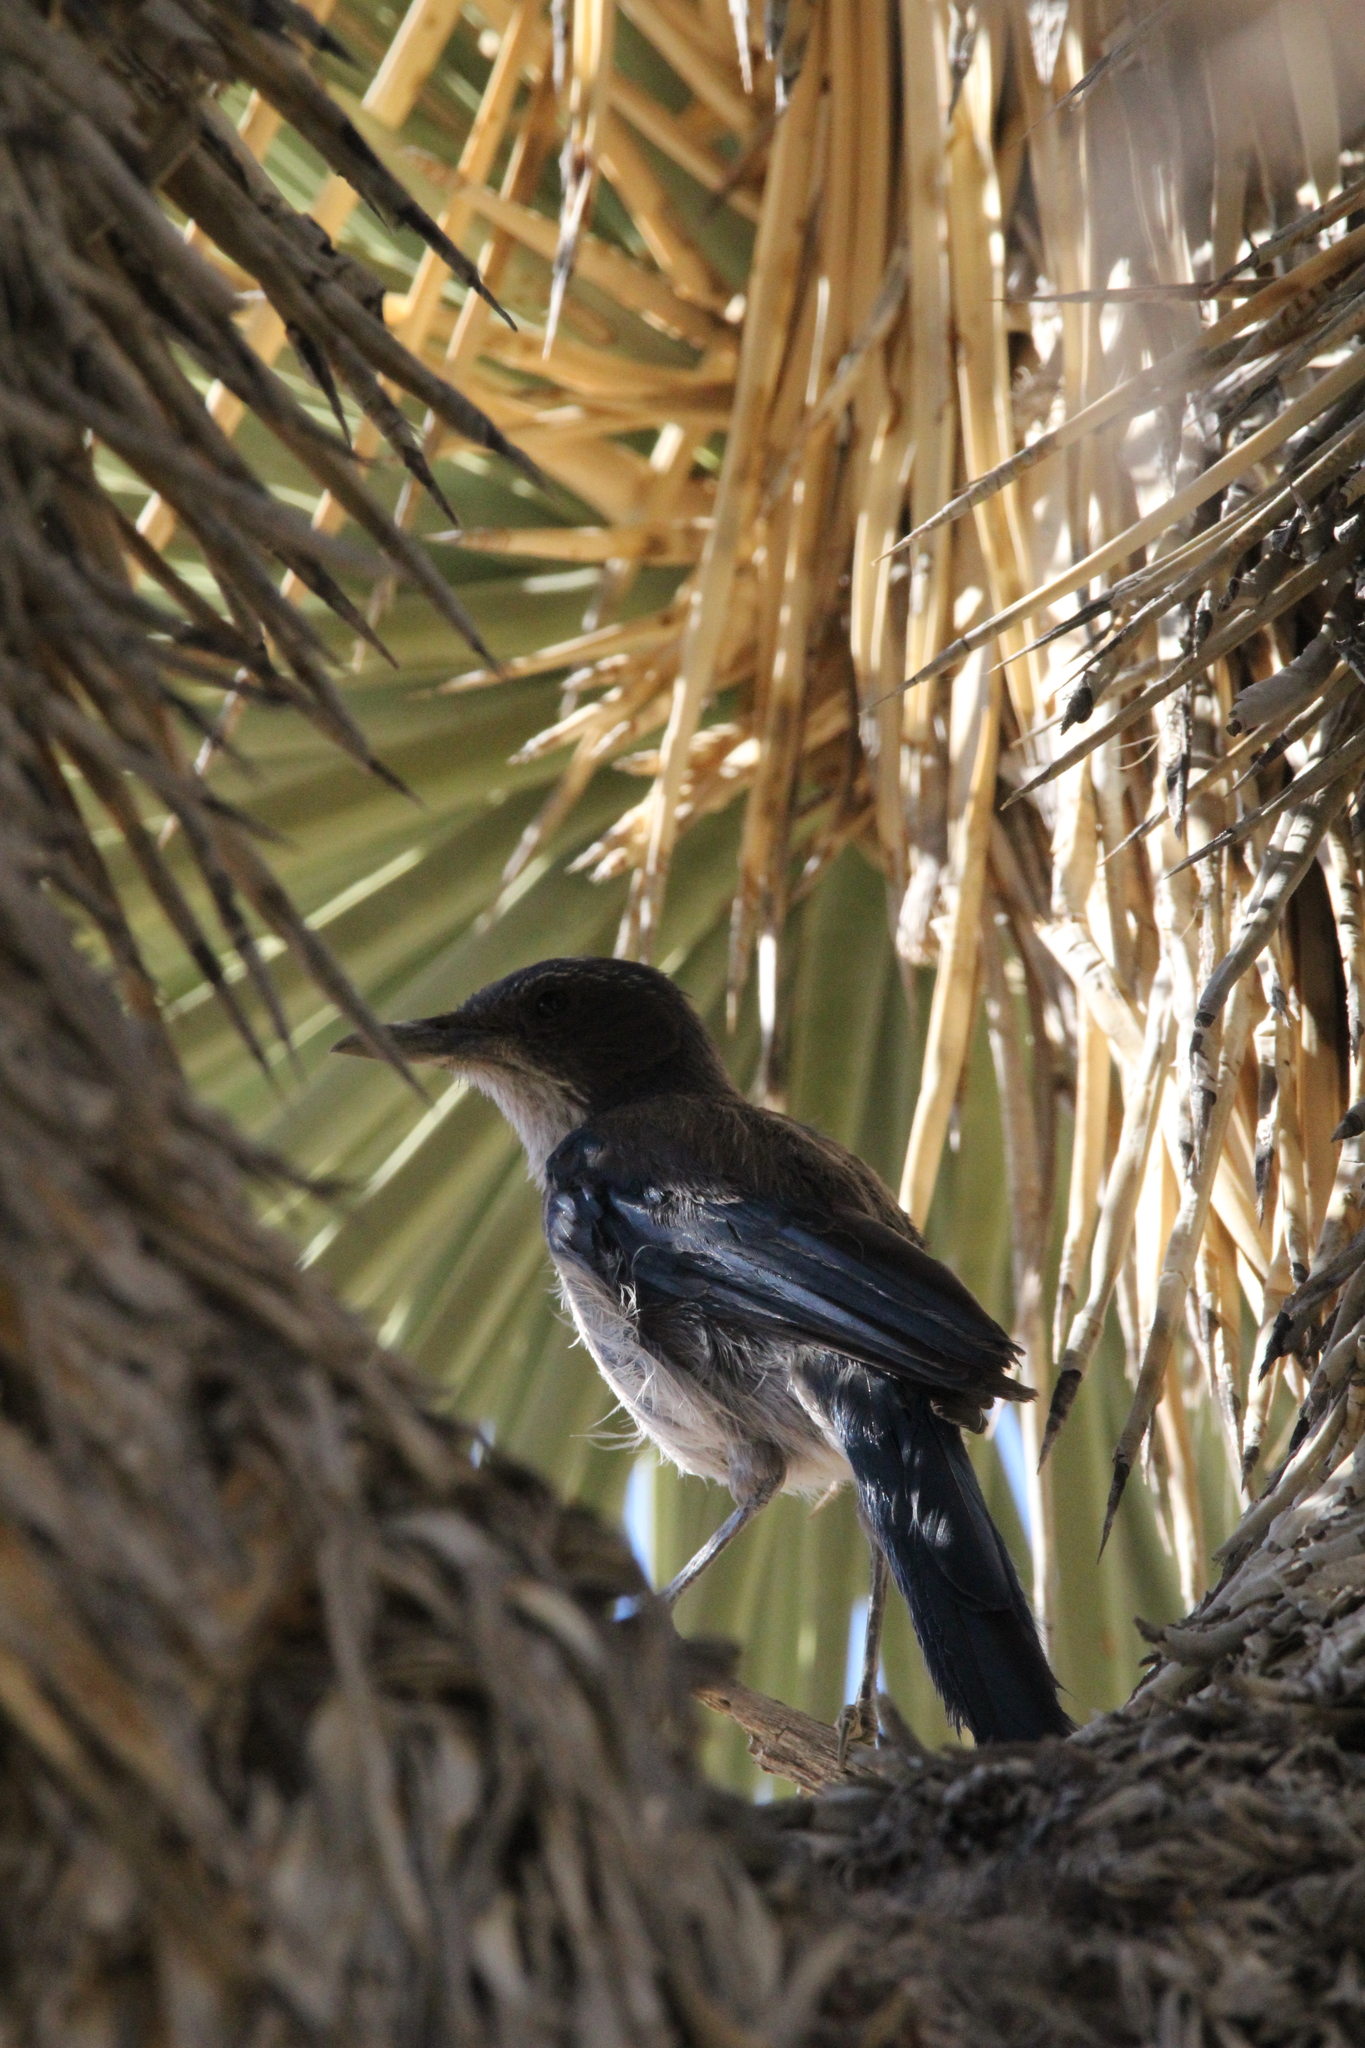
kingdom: Animalia
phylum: Chordata
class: Aves
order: Passeriformes
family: Corvidae
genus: Aphelocoma
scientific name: Aphelocoma californica
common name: California scrub-jay
